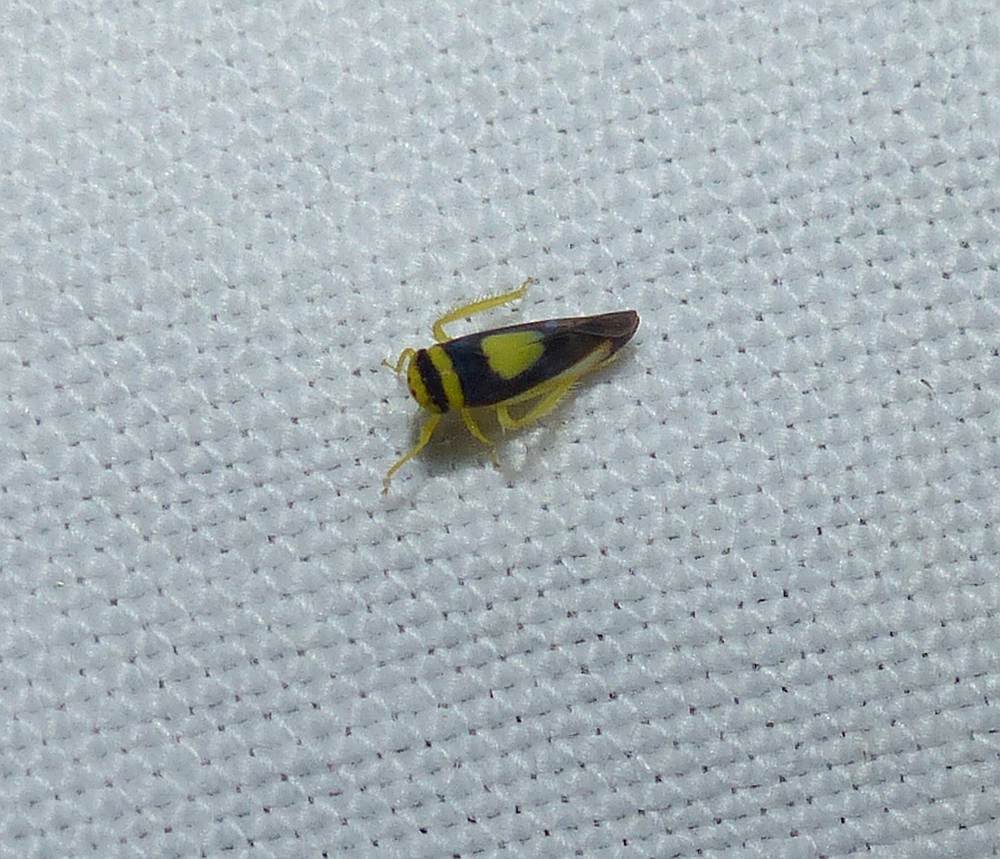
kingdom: Animalia
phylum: Arthropoda
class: Insecta
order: Hemiptera
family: Cicadellidae
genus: Colladonus
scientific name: Colladonus clitellarius
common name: The saddleback leafhopper
